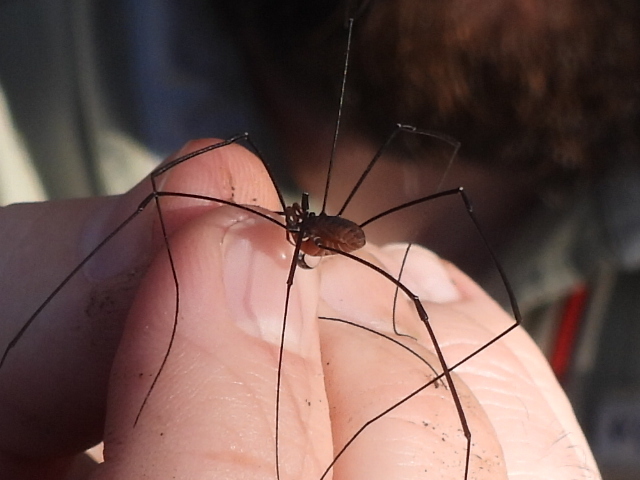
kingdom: Animalia
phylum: Arthropoda
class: Arachnida
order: Opiliones
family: Sclerosomatidae
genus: Leiobunum
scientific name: Leiobunum vittatum
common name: Eastern harvestman
